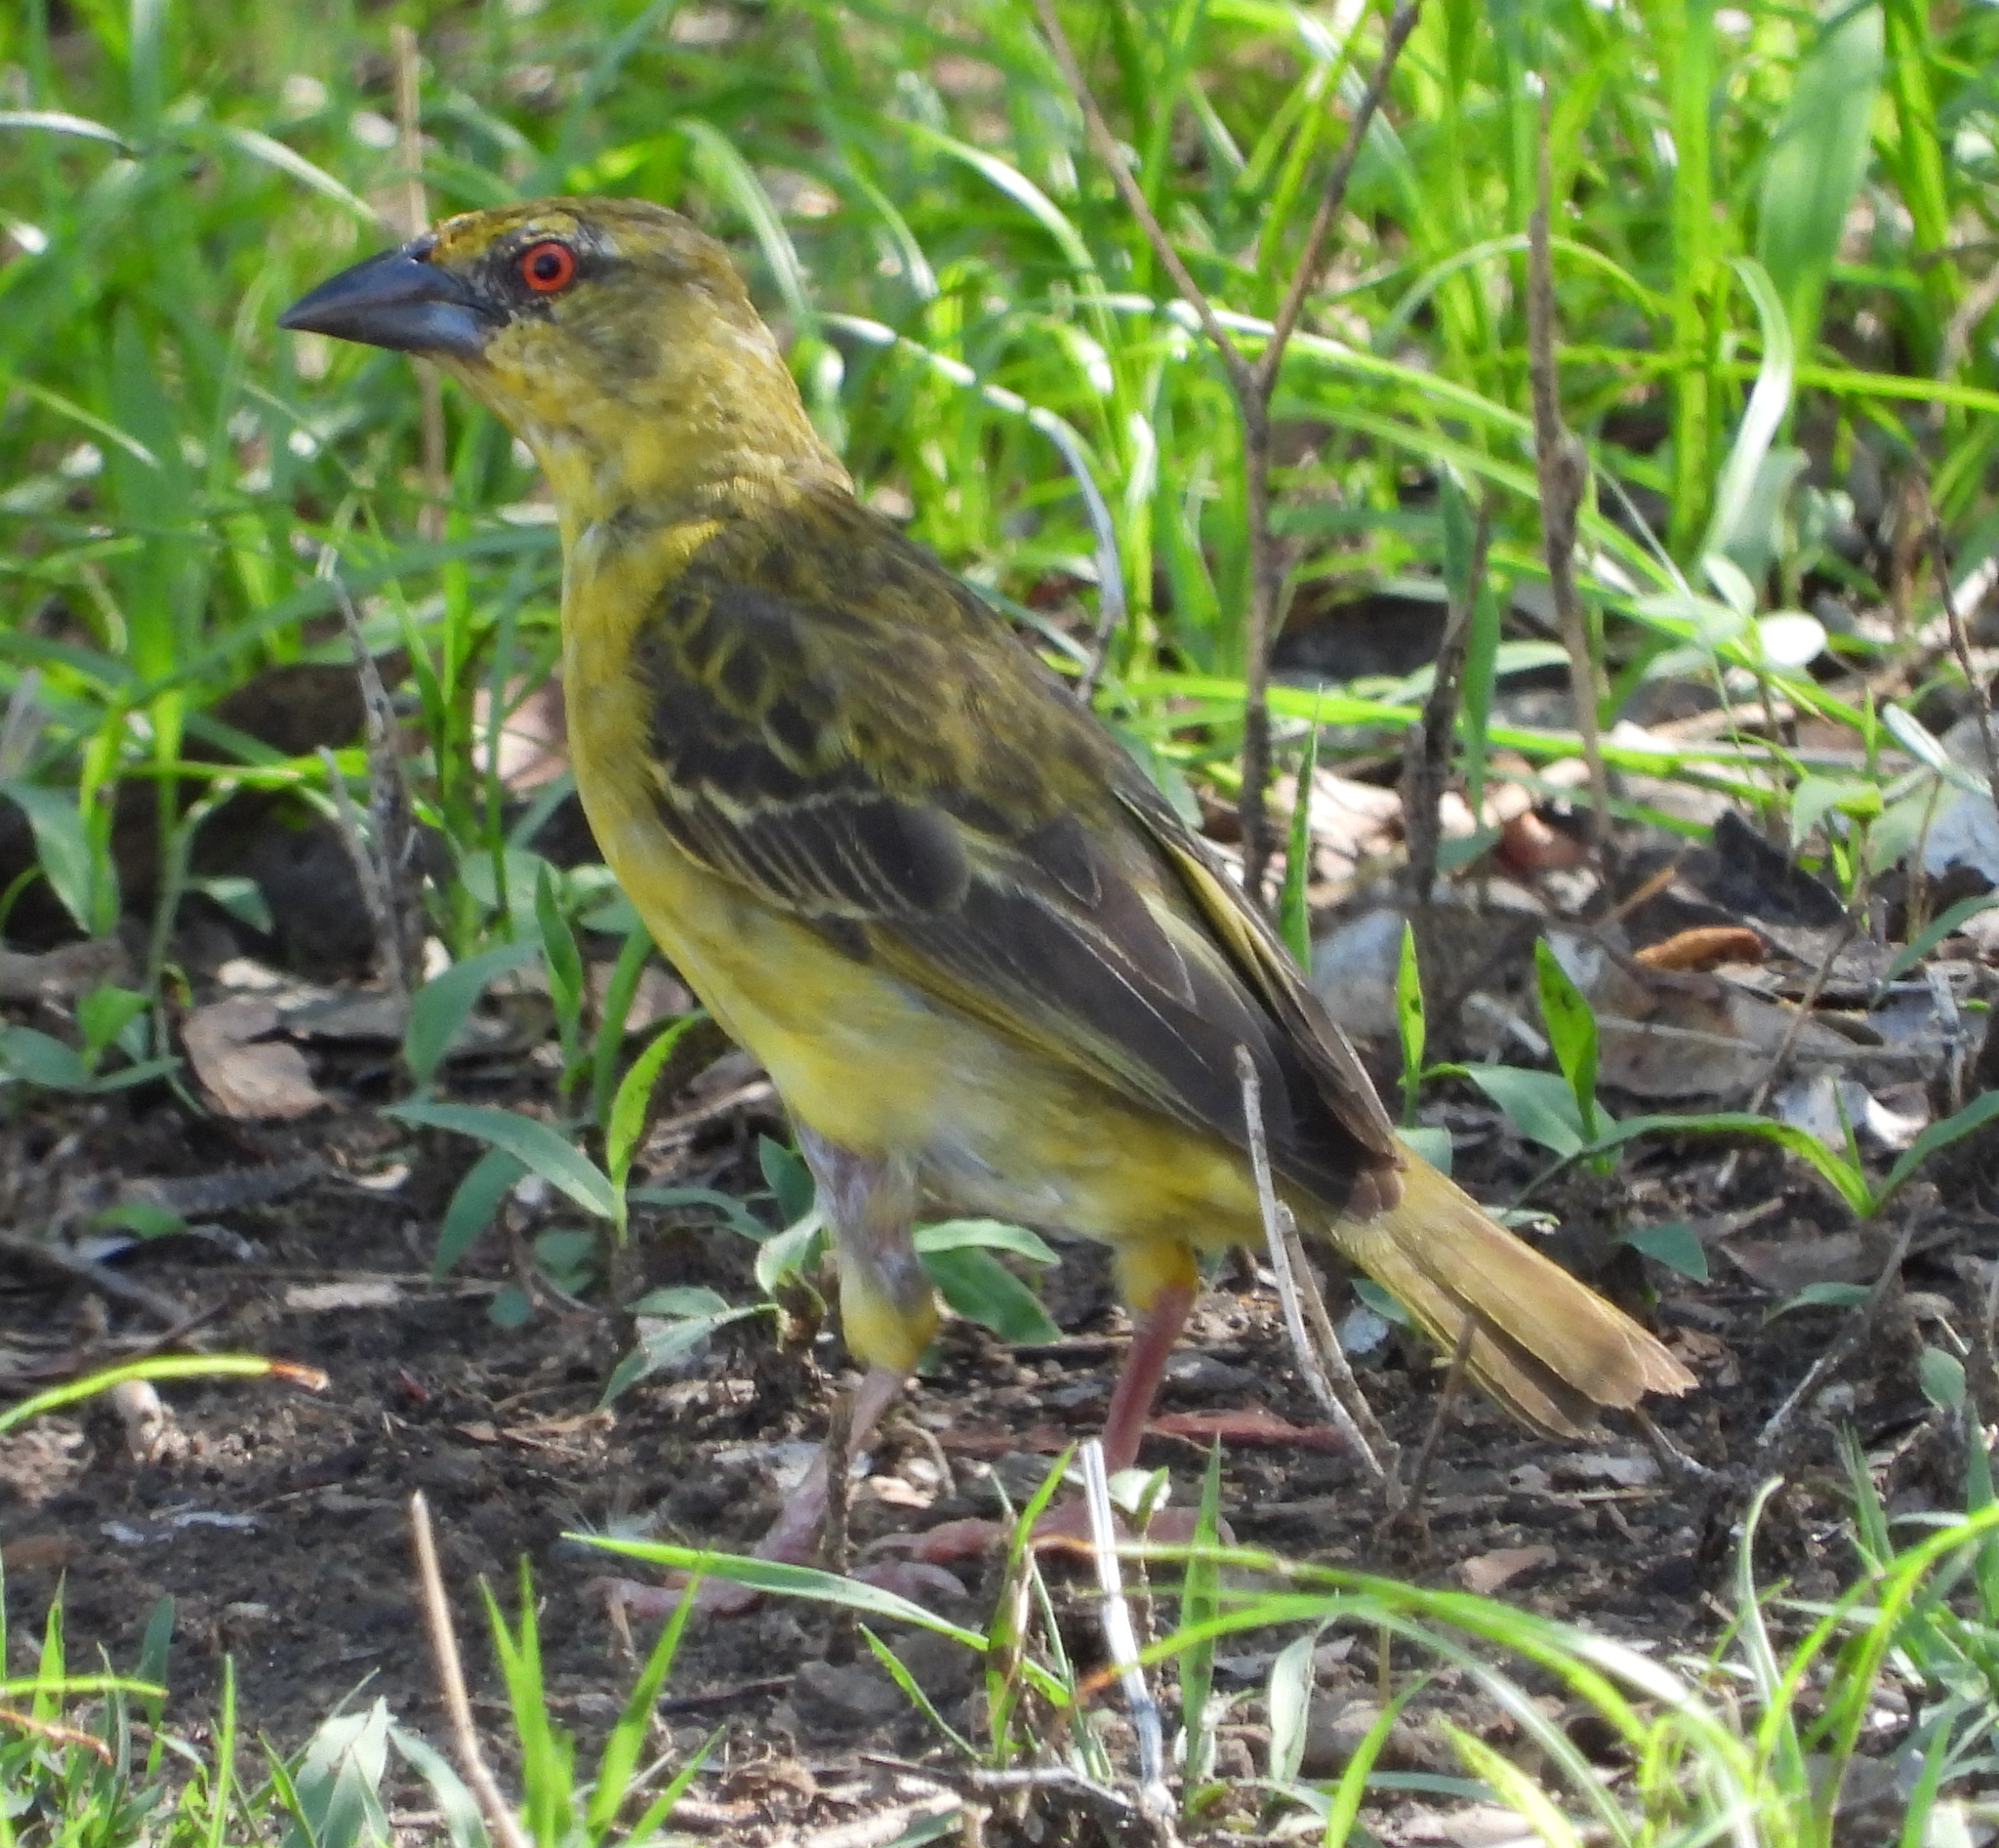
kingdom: Animalia
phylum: Chordata
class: Aves
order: Passeriformes
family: Ploceidae
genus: Ploceus
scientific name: Ploceus cucullatus
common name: Village weaver
